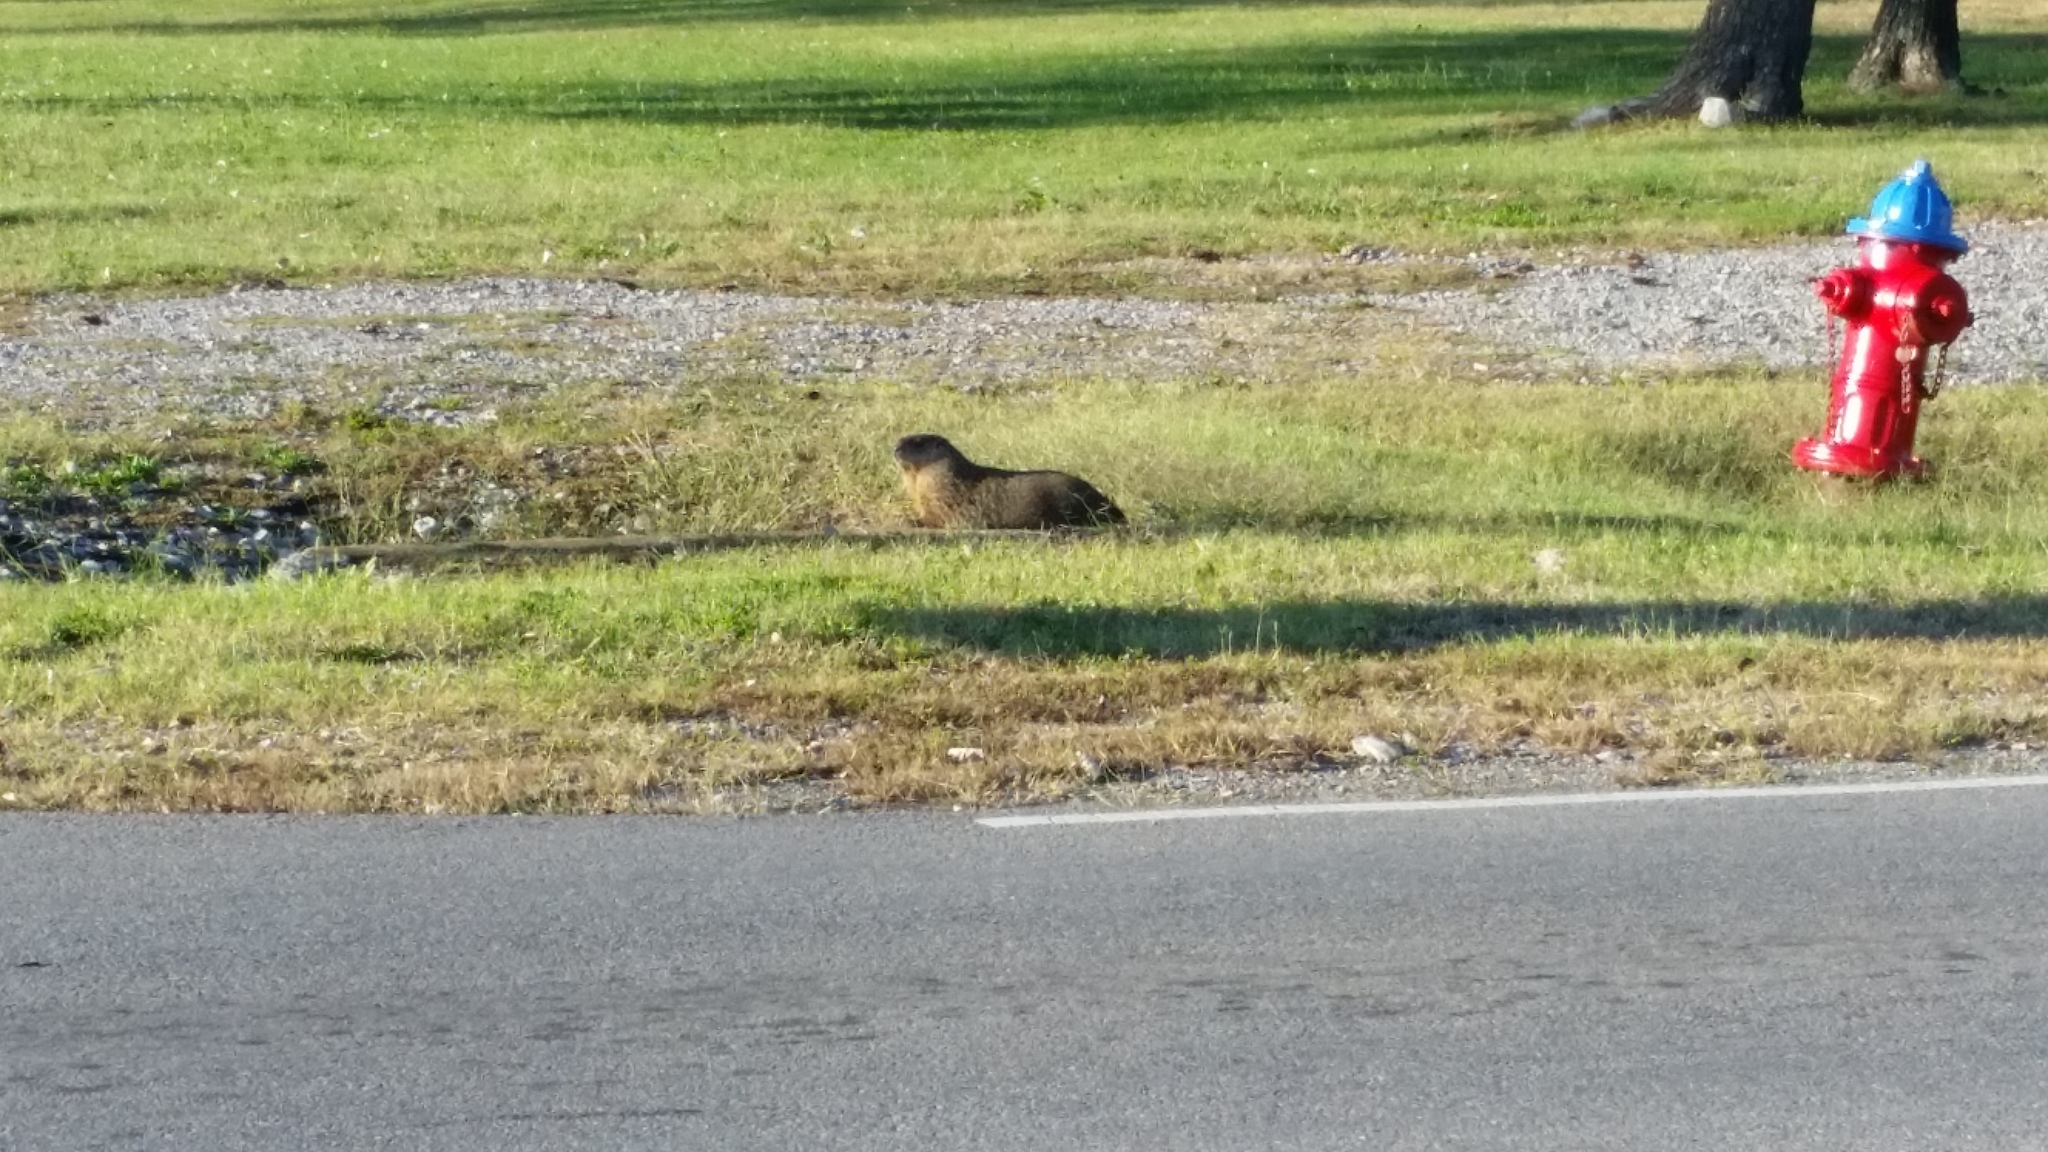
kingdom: Animalia
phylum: Chordata
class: Mammalia
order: Rodentia
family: Sciuridae
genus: Marmota
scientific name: Marmota monax
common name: Groundhog
